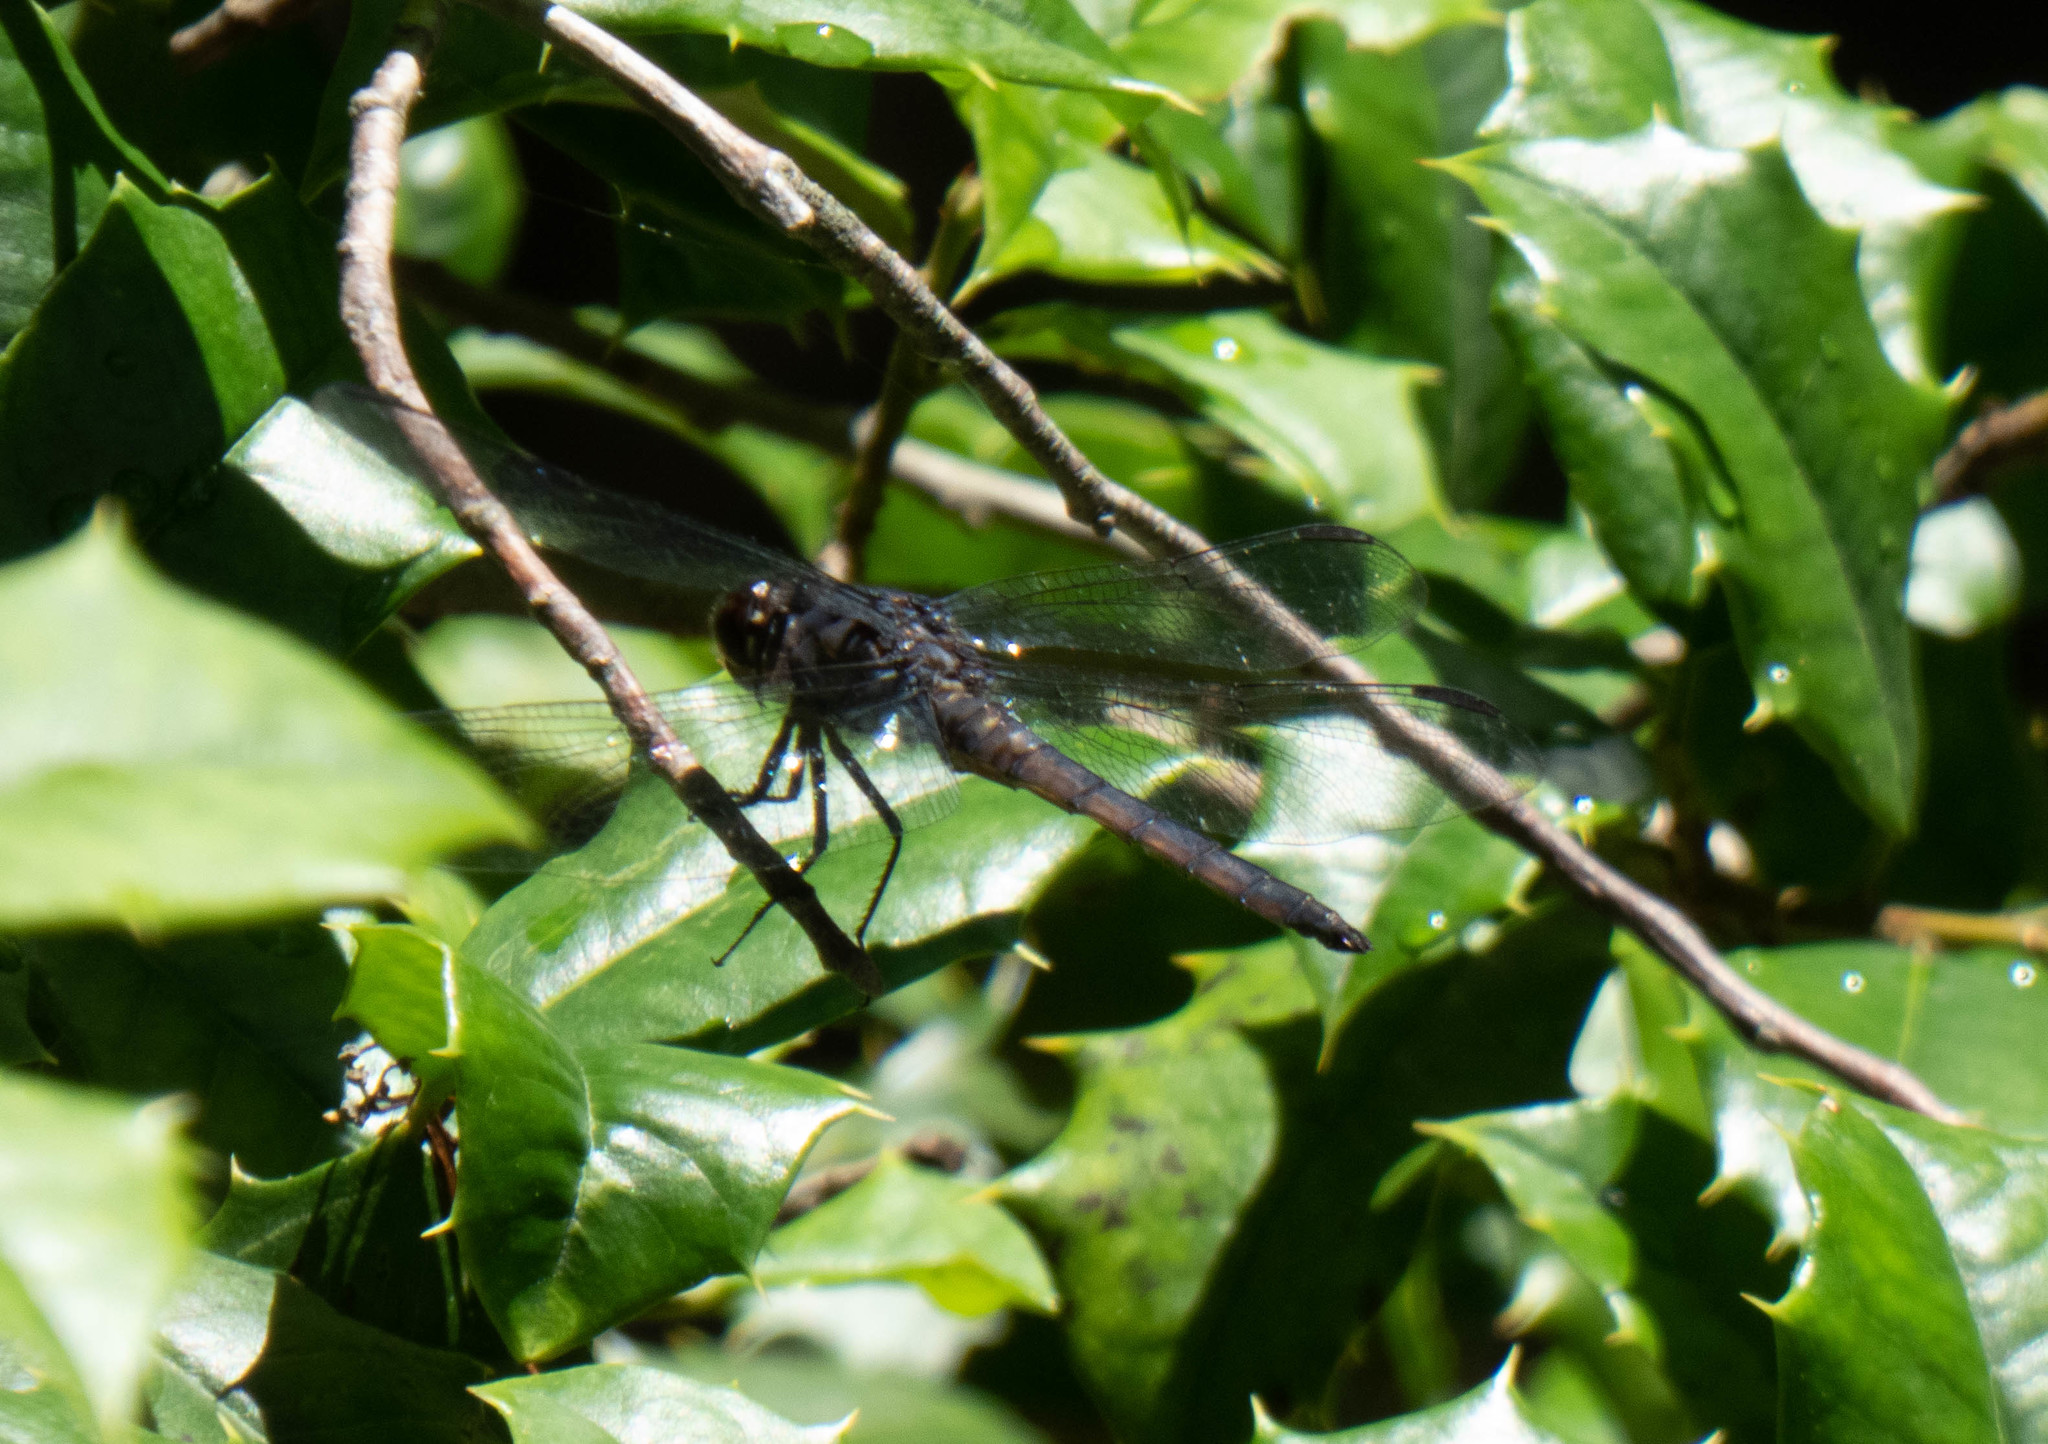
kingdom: Animalia
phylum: Arthropoda
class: Insecta
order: Odonata
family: Libellulidae
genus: Libellula
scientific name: Libellula incesta
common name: Slaty skimmer
